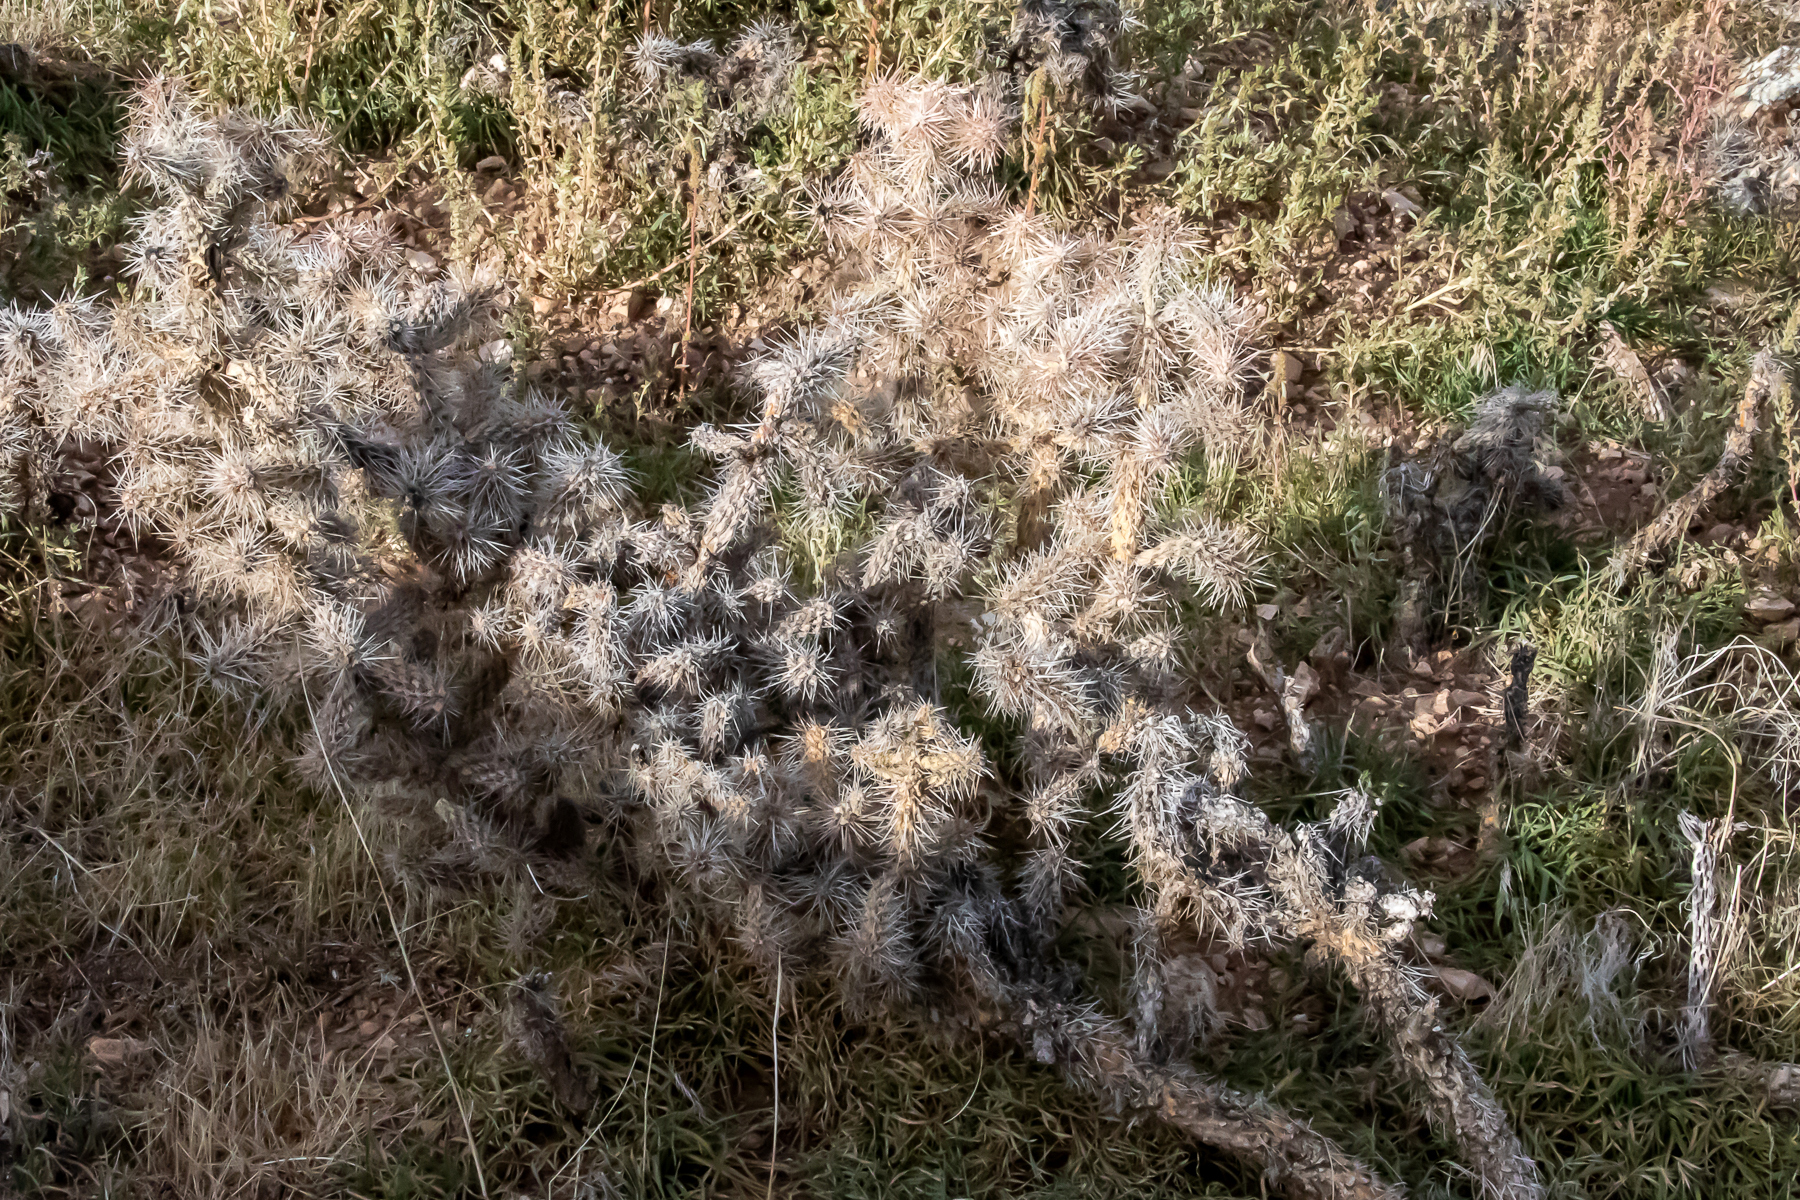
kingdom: Plantae
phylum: Tracheophyta
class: Magnoliopsida
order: Caryophyllales
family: Cactaceae
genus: Cylindropuntia
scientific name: Cylindropuntia whipplei
